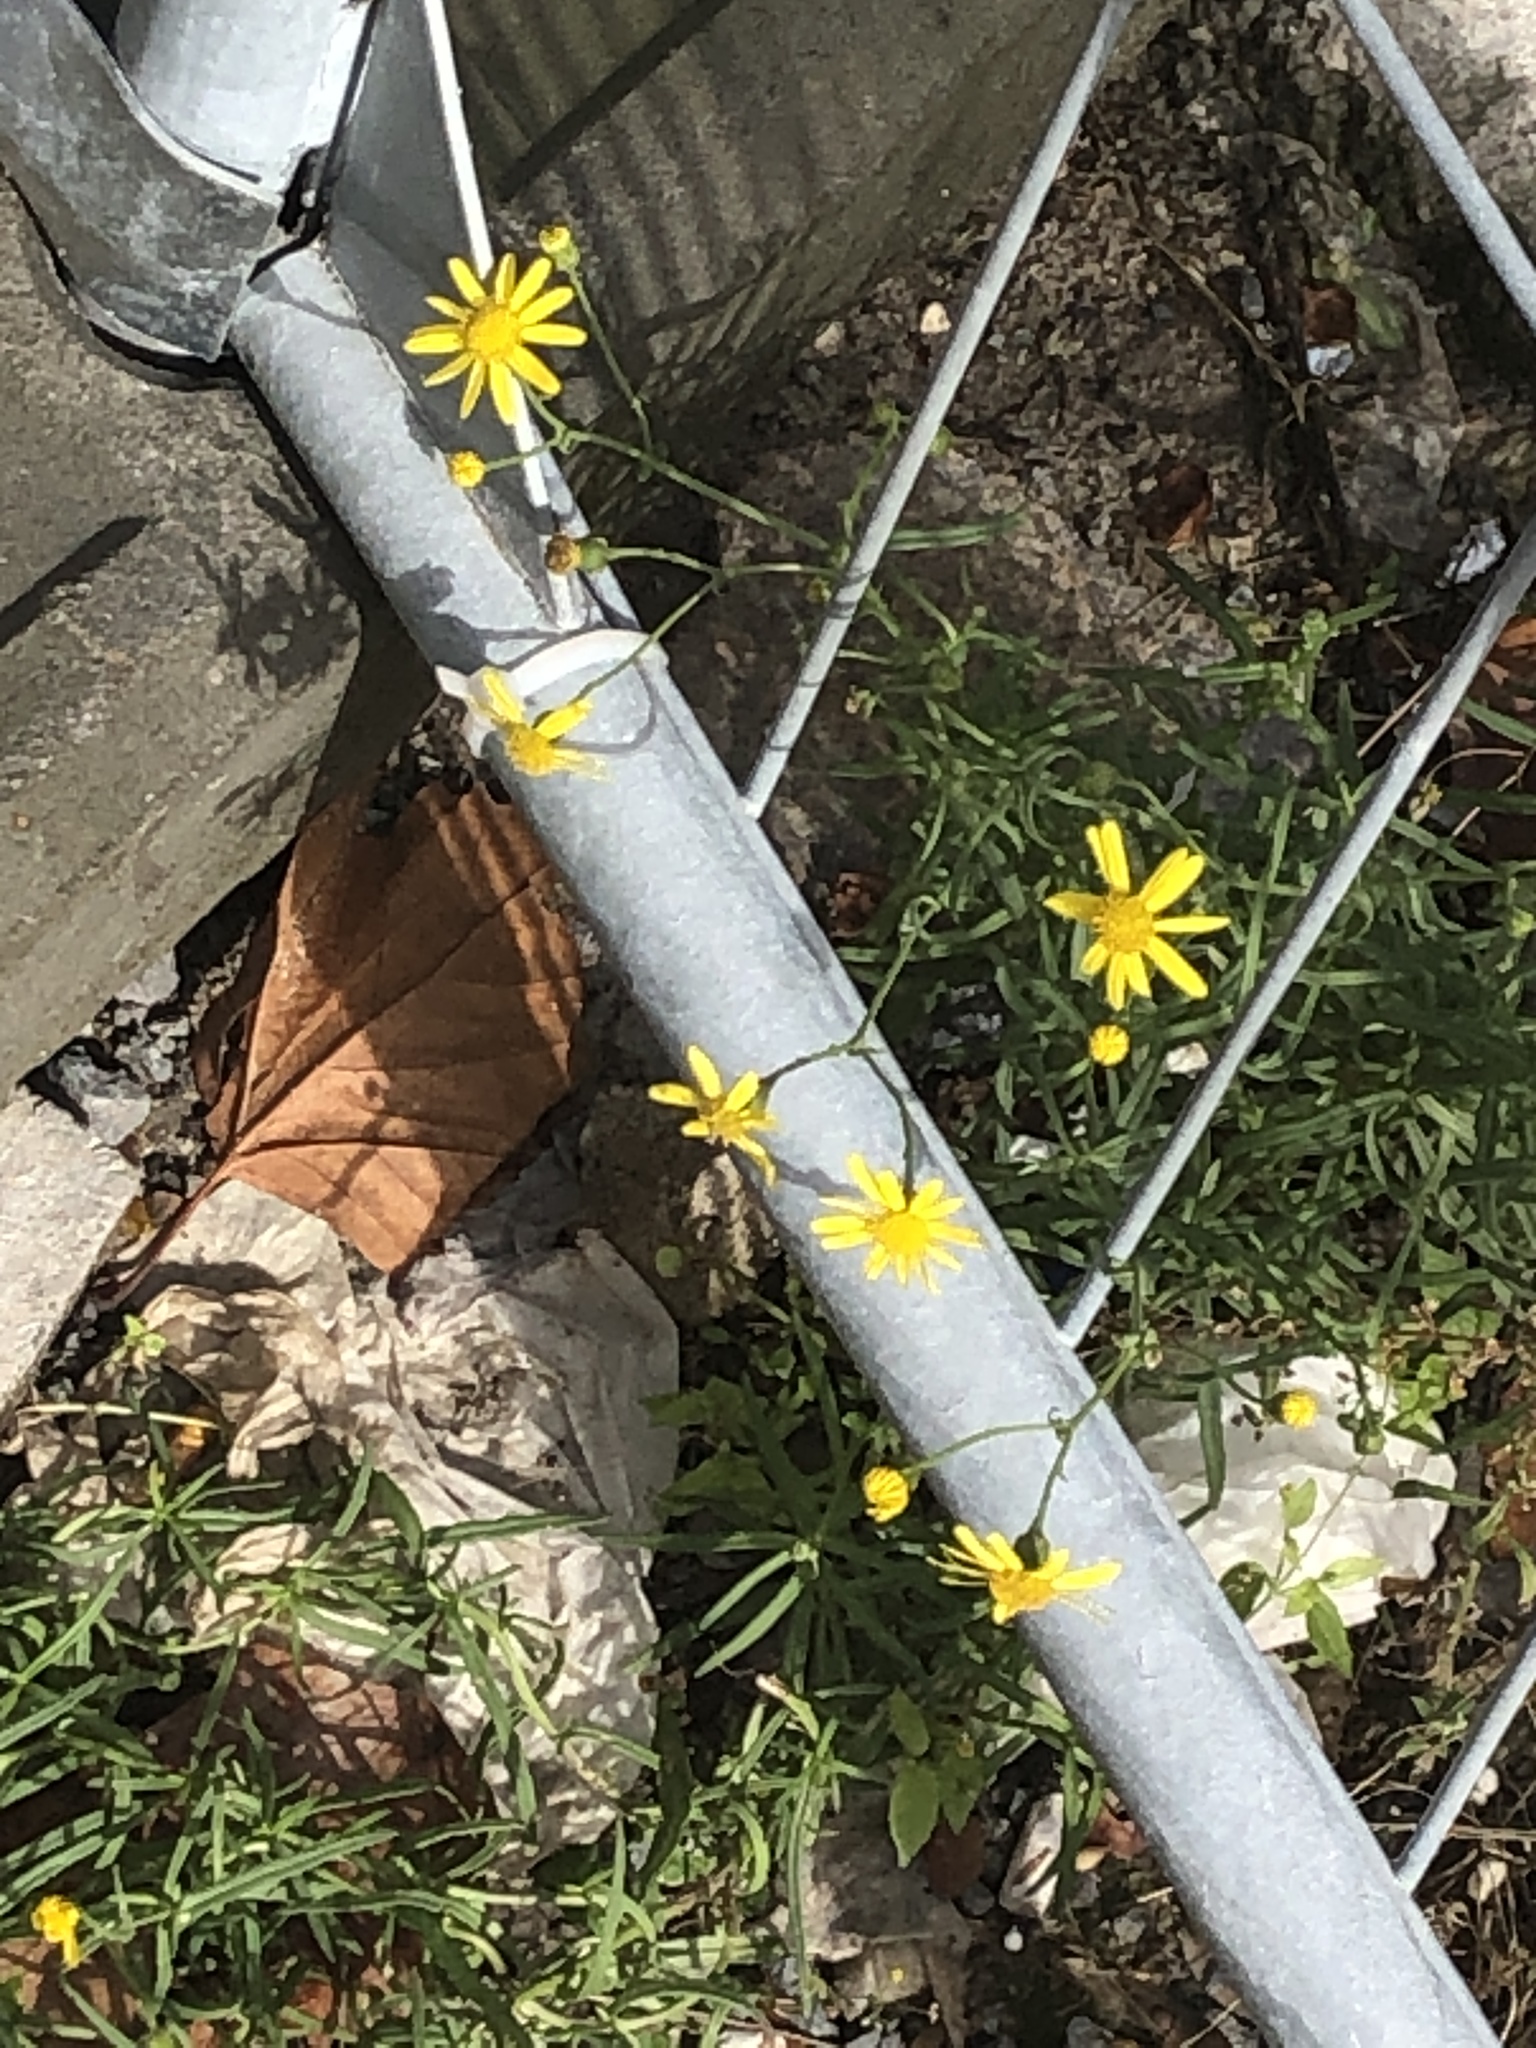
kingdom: Plantae
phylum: Tracheophyta
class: Magnoliopsida
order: Asterales
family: Asteraceae
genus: Senecio
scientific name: Senecio inaequidens
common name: Narrow-leaved ragwort
